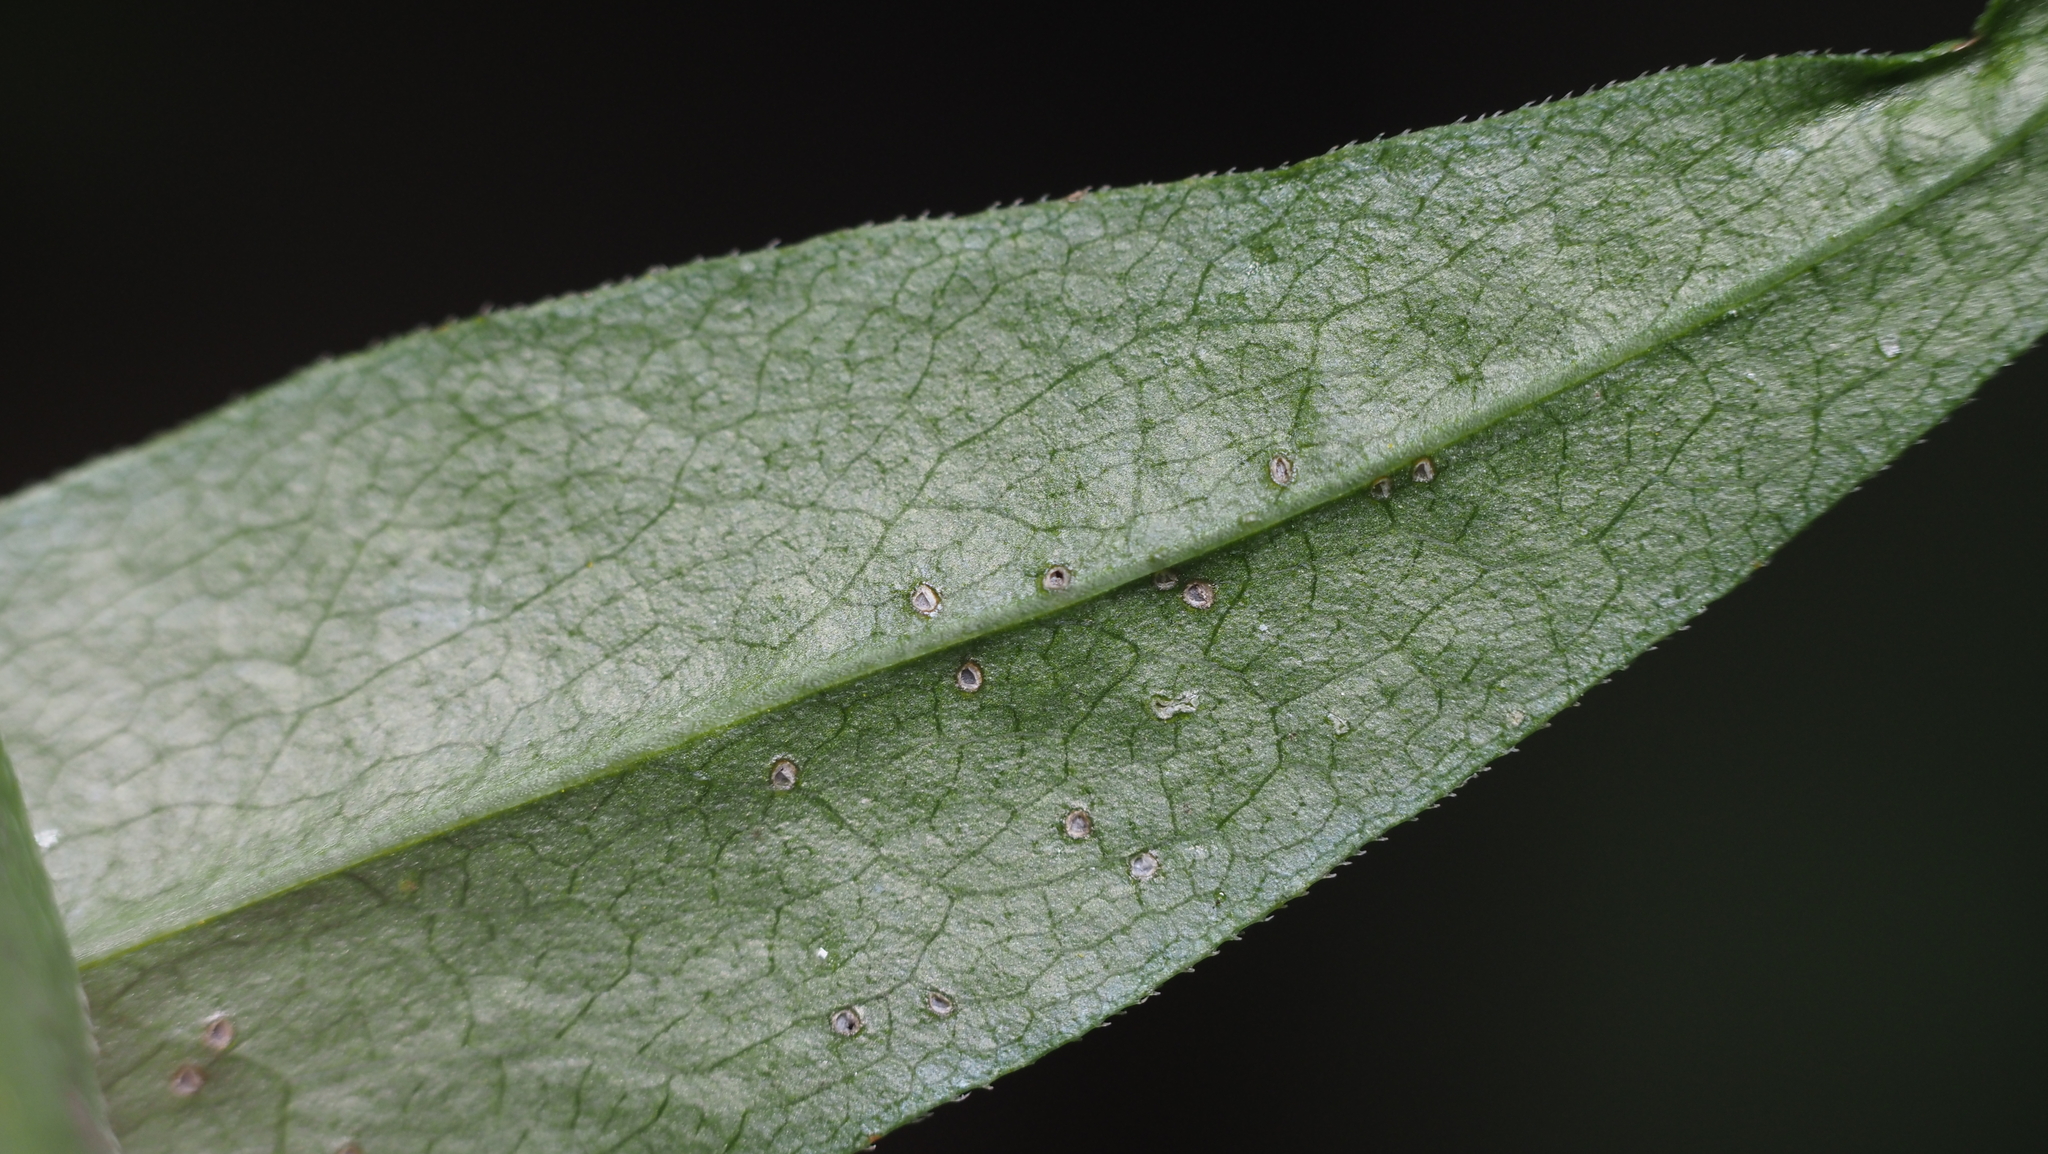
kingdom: Plantae
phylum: Tracheophyta
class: Magnoliopsida
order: Asterales
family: Asteraceae
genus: Solidago
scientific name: Solidago caesia
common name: Woodland goldenrod
